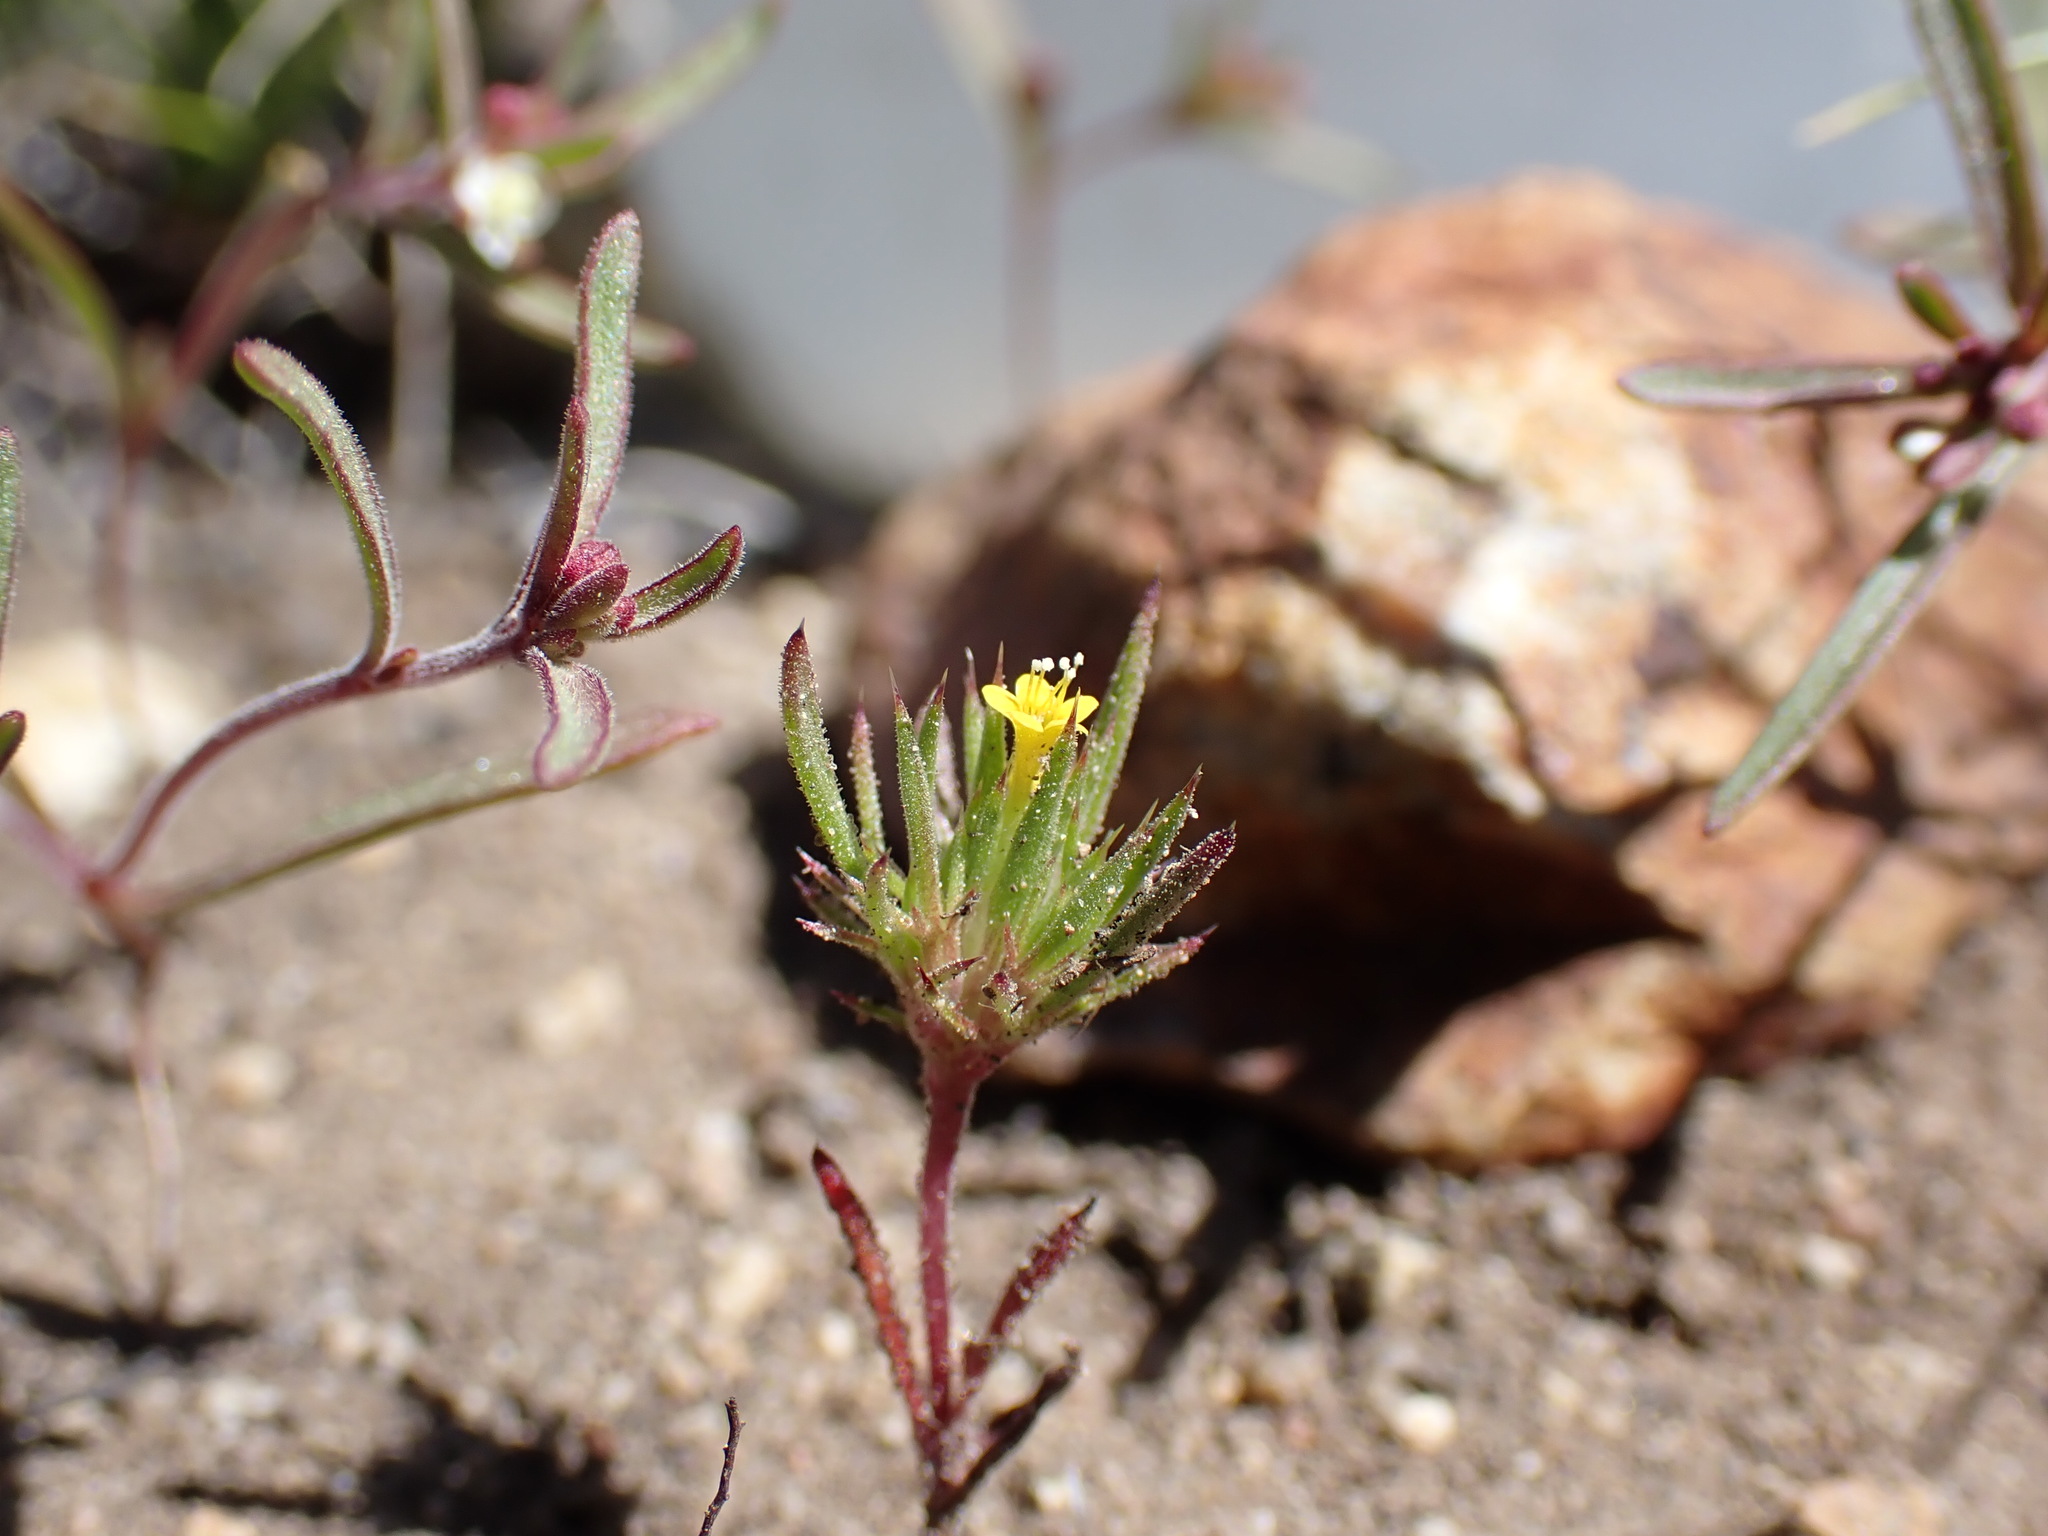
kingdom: Plantae
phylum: Tracheophyta
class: Magnoliopsida
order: Ericales
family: Polemoniaceae
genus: Navarretia
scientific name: Navarretia breweri
